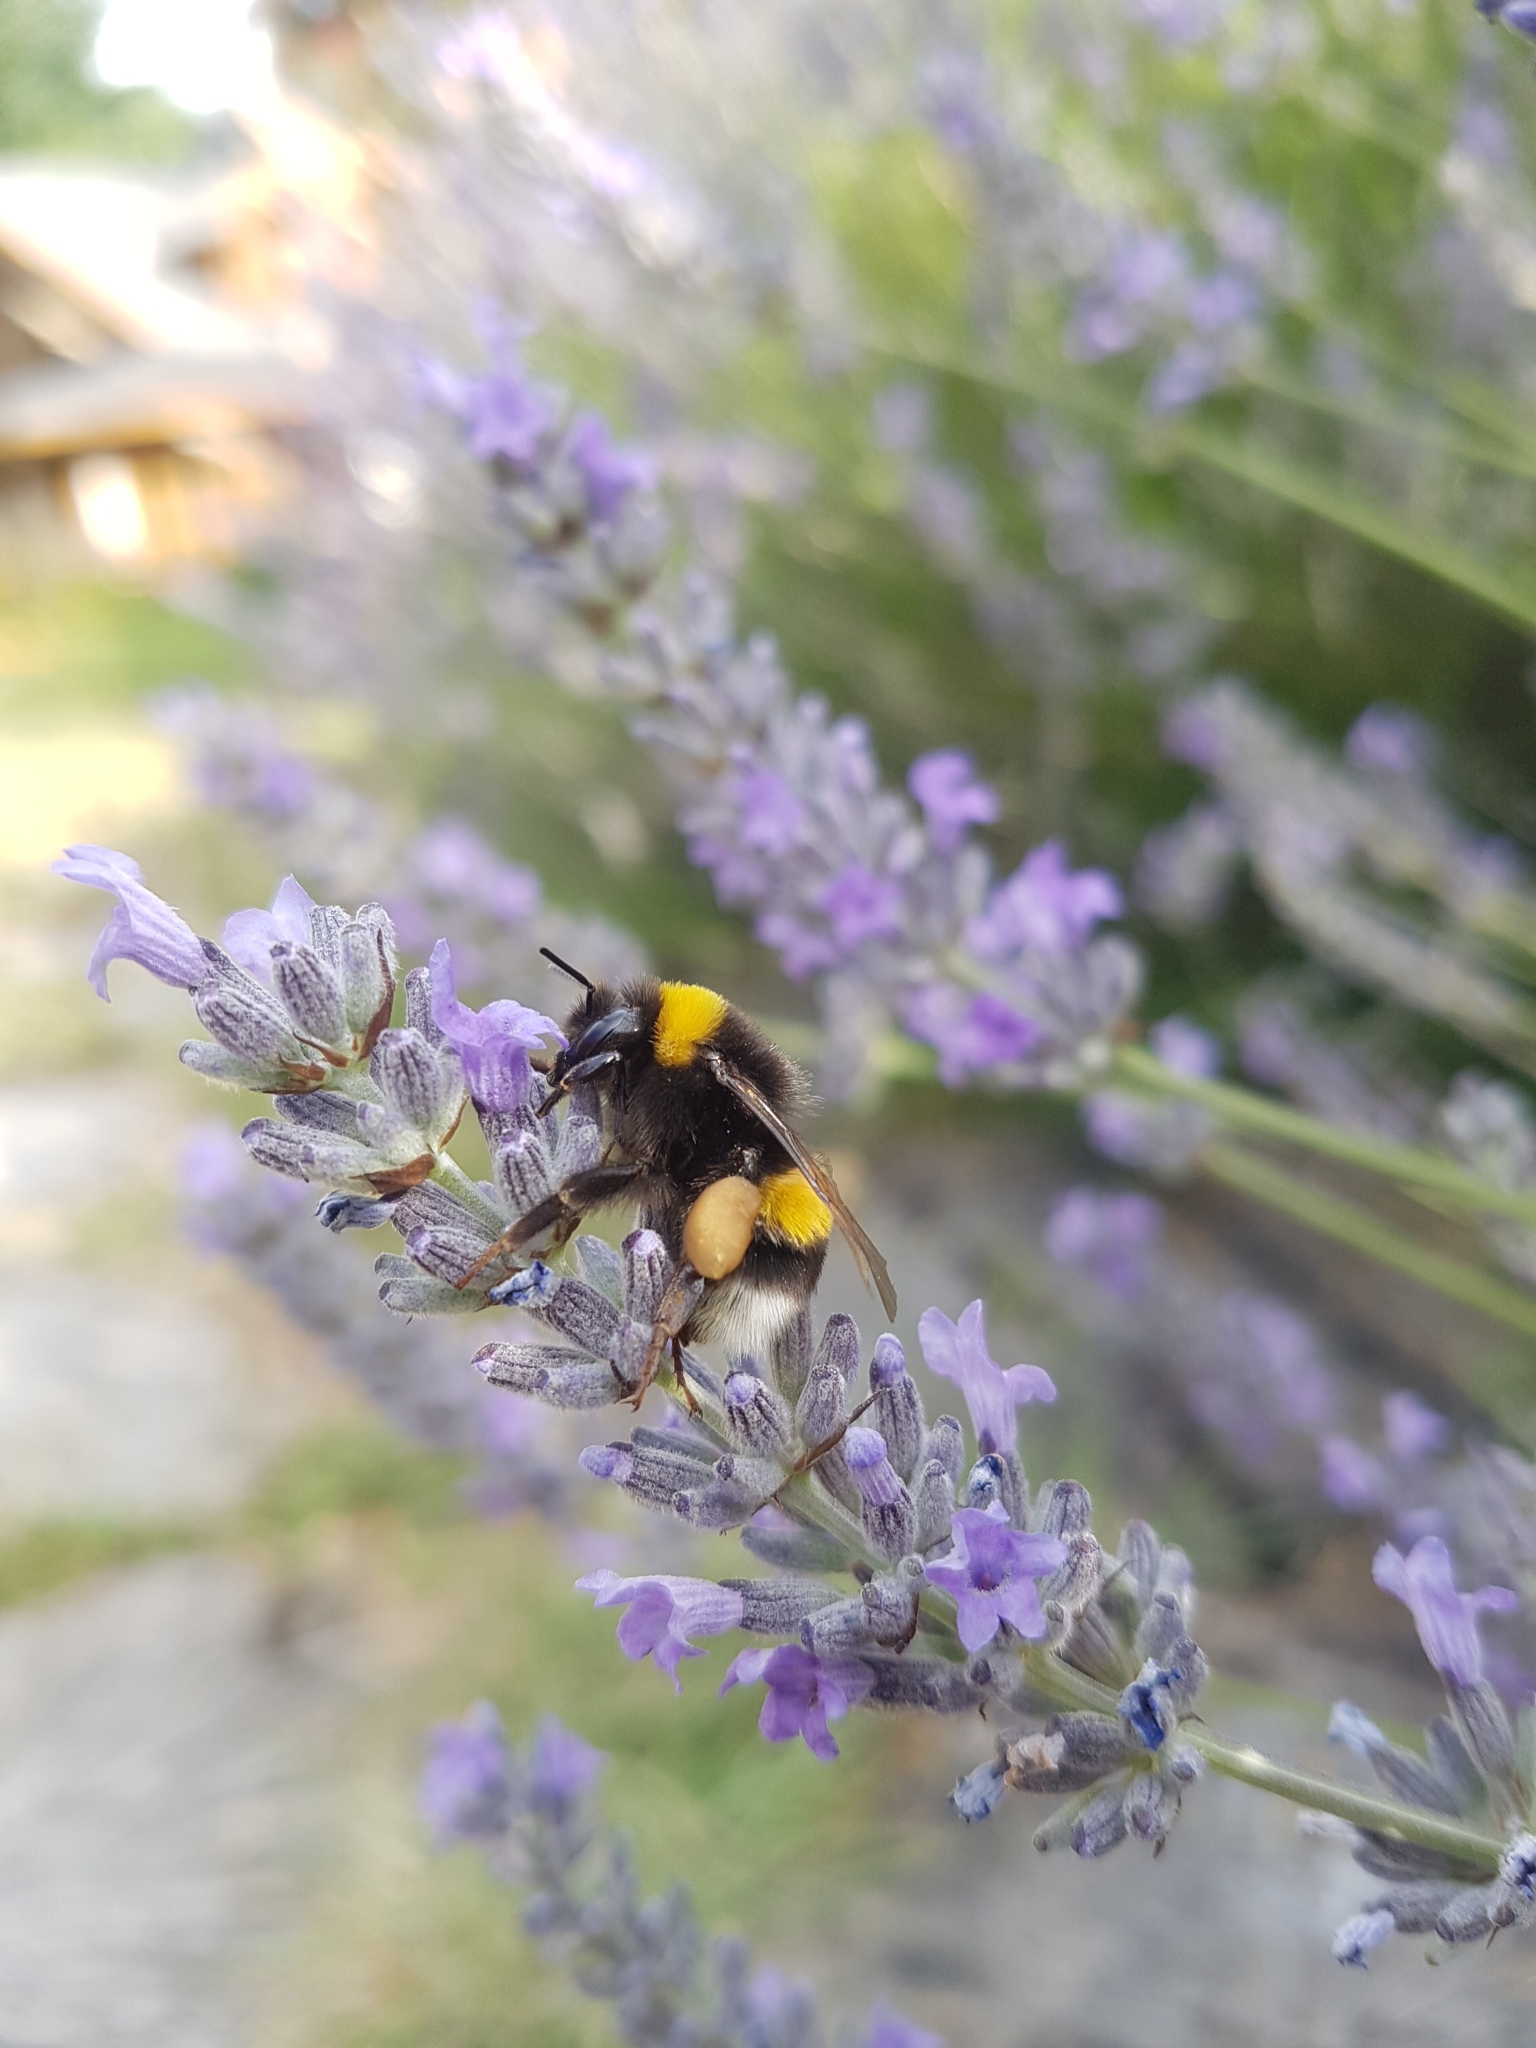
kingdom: Animalia
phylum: Arthropoda
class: Insecta
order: Hymenoptera
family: Apidae
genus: Bombus
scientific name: Bombus terrestris
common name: Buff-tailed bumblebee
